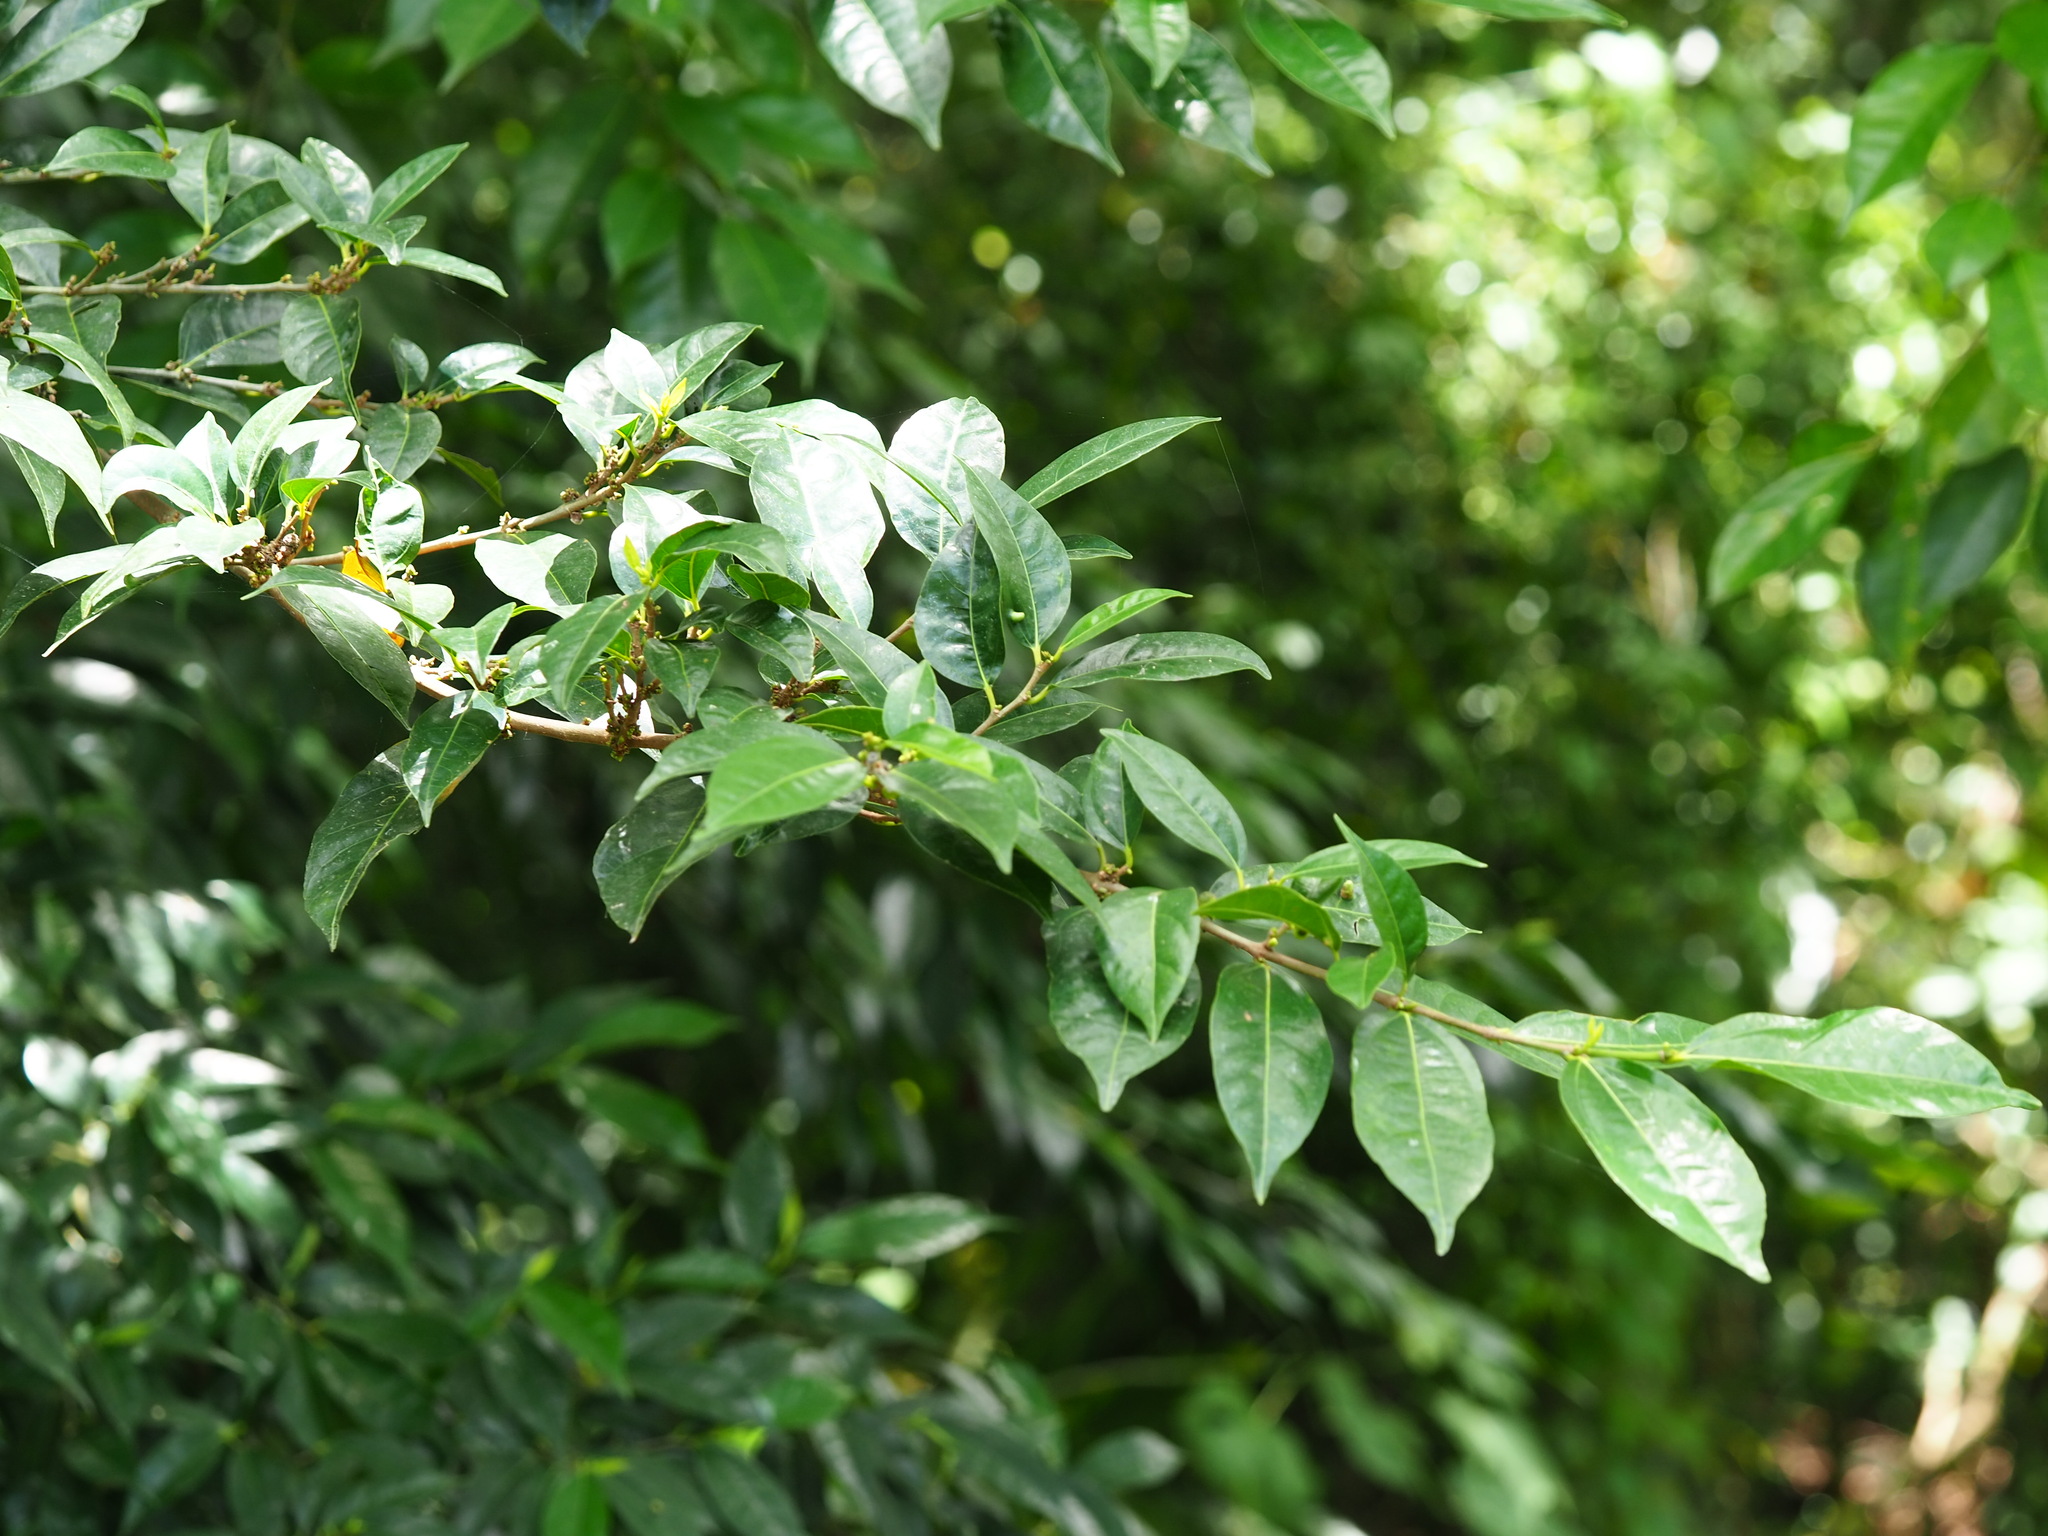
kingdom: Plantae
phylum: Tracheophyta
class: Magnoliopsida
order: Rosales
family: Moraceae
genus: Ficus
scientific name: Ficus ampelos
